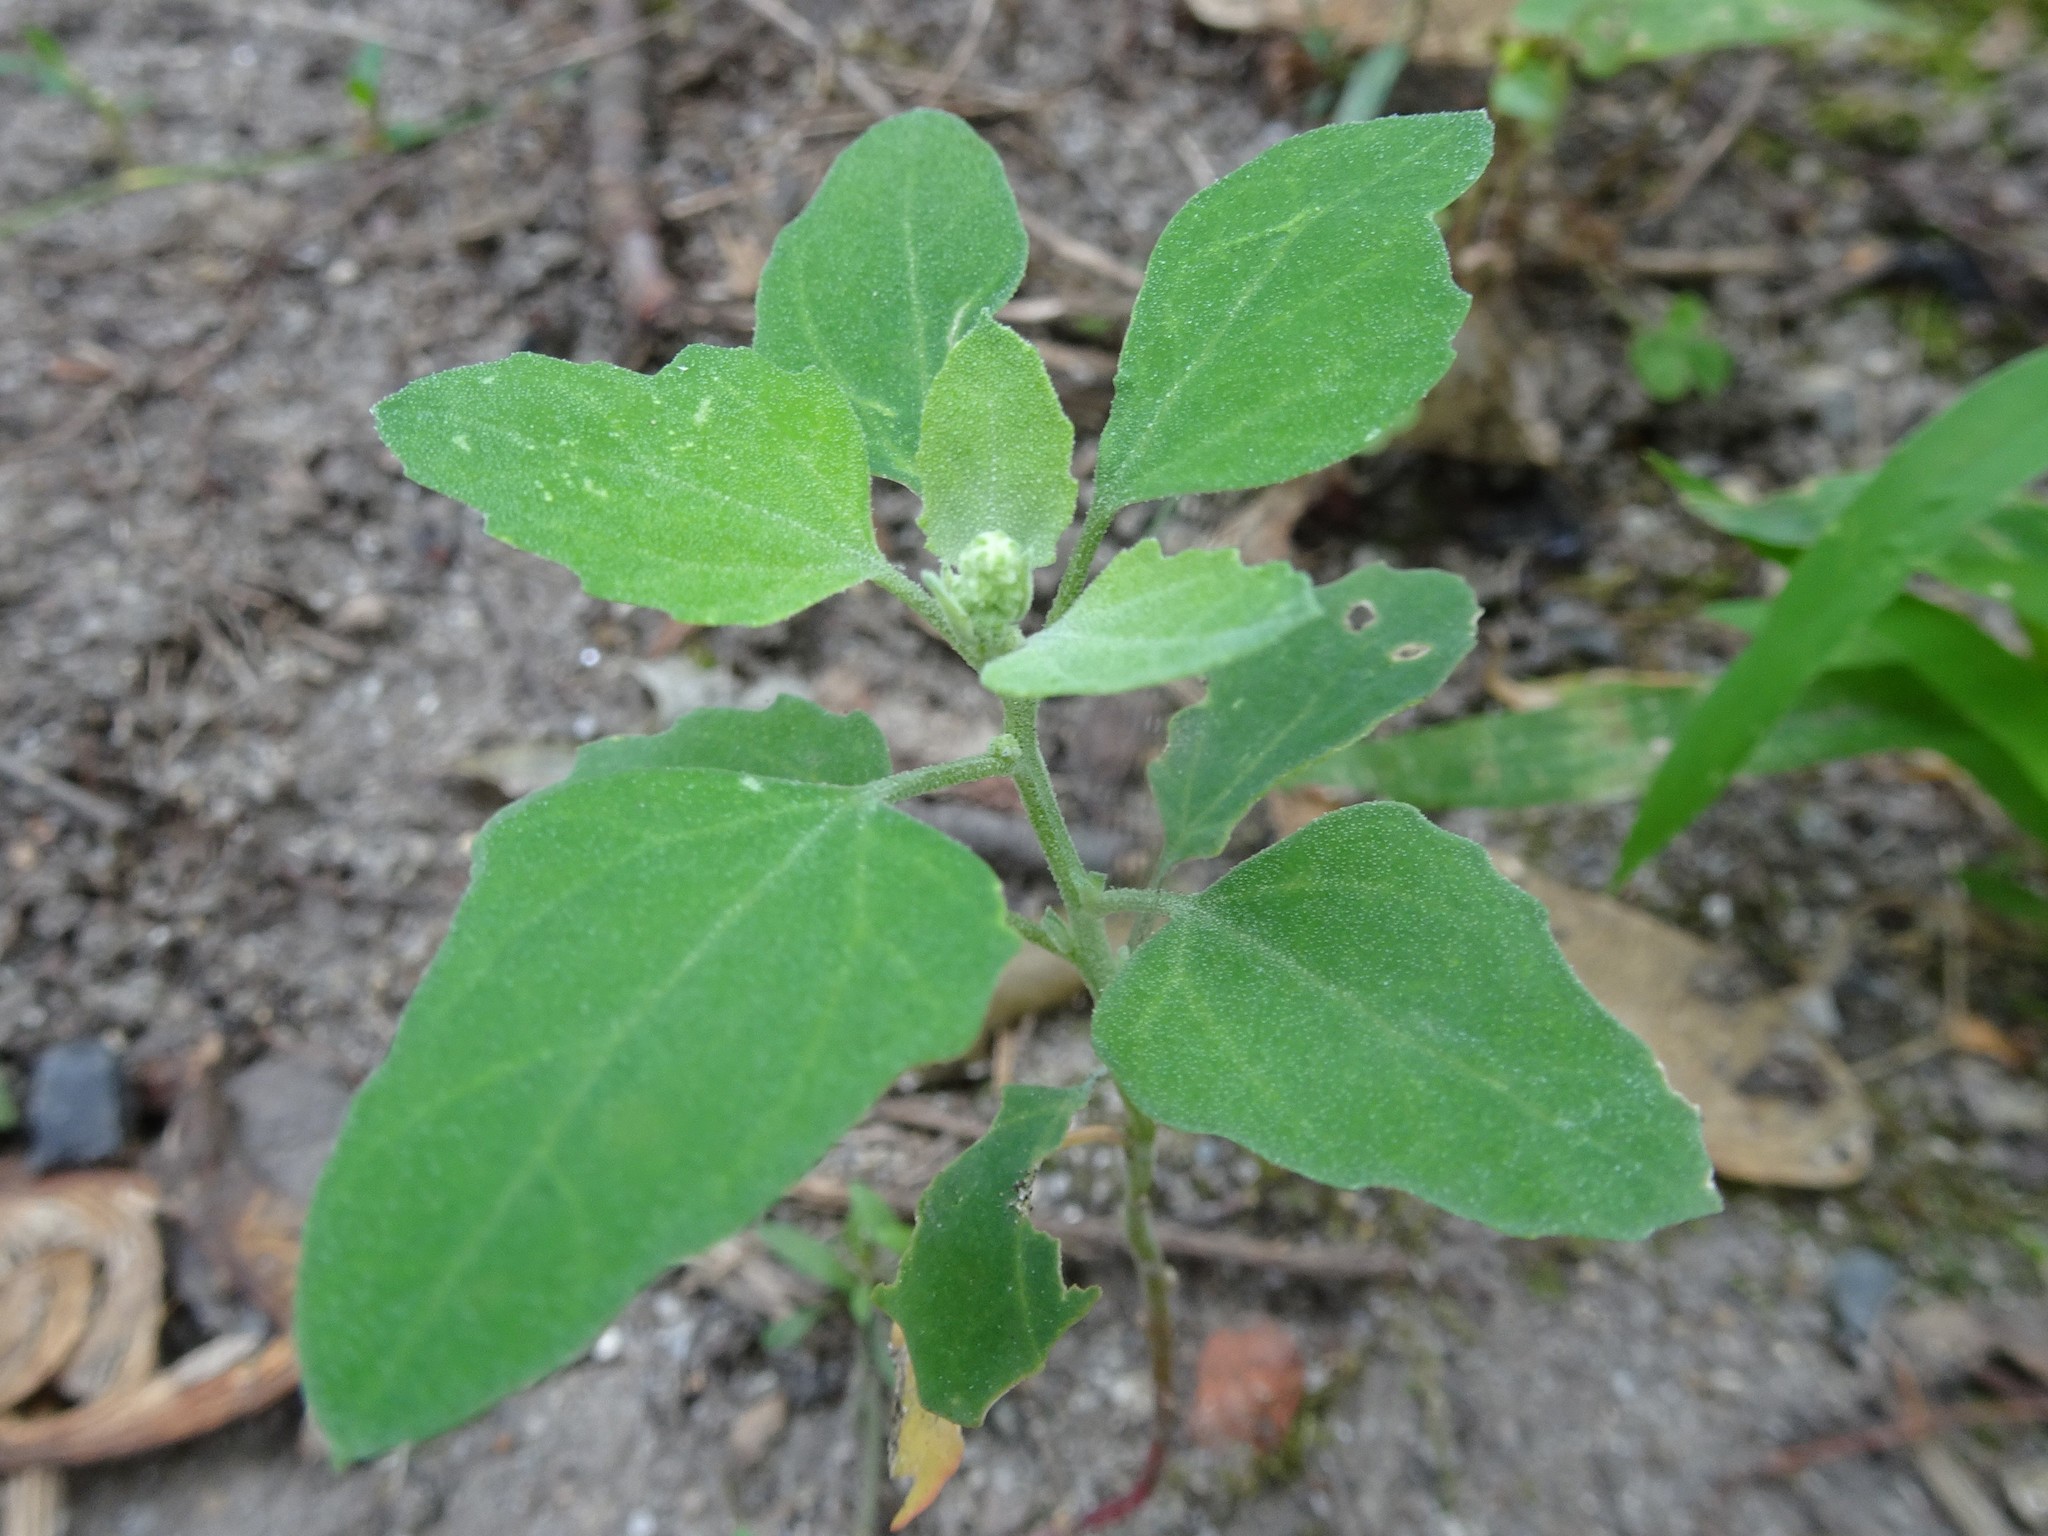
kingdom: Plantae
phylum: Tracheophyta
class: Magnoliopsida
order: Caryophyllales
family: Amaranthaceae
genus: Chenopodium
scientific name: Chenopodium album
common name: Fat-hen
